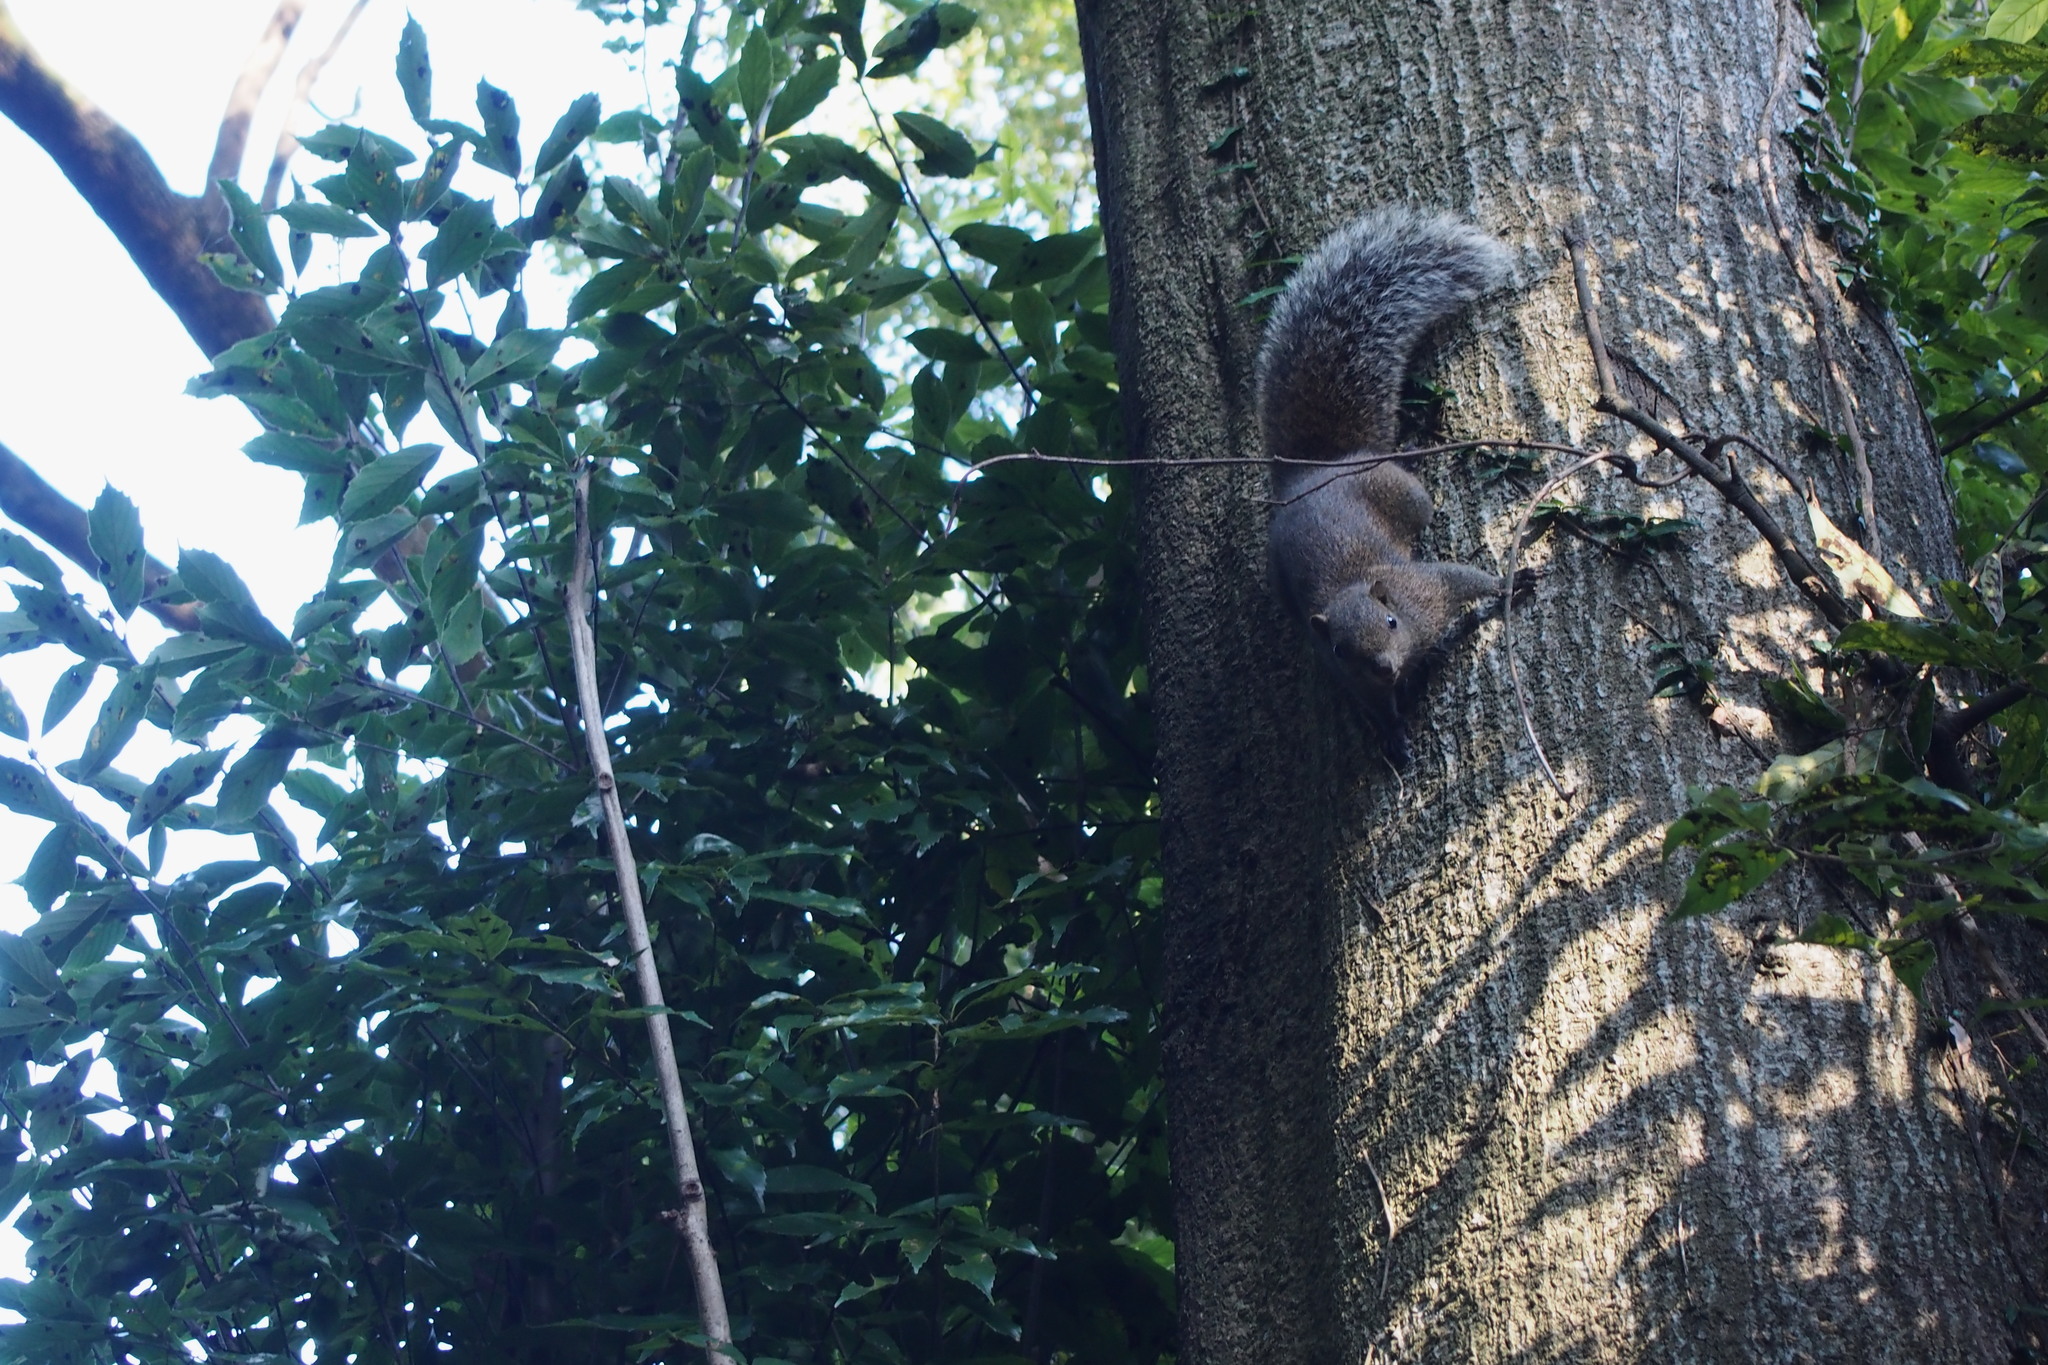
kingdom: Animalia
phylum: Chordata
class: Mammalia
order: Rodentia
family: Sciuridae
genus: Callosciurus
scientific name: Callosciurus erythraeus
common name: Pallas's squirrel
